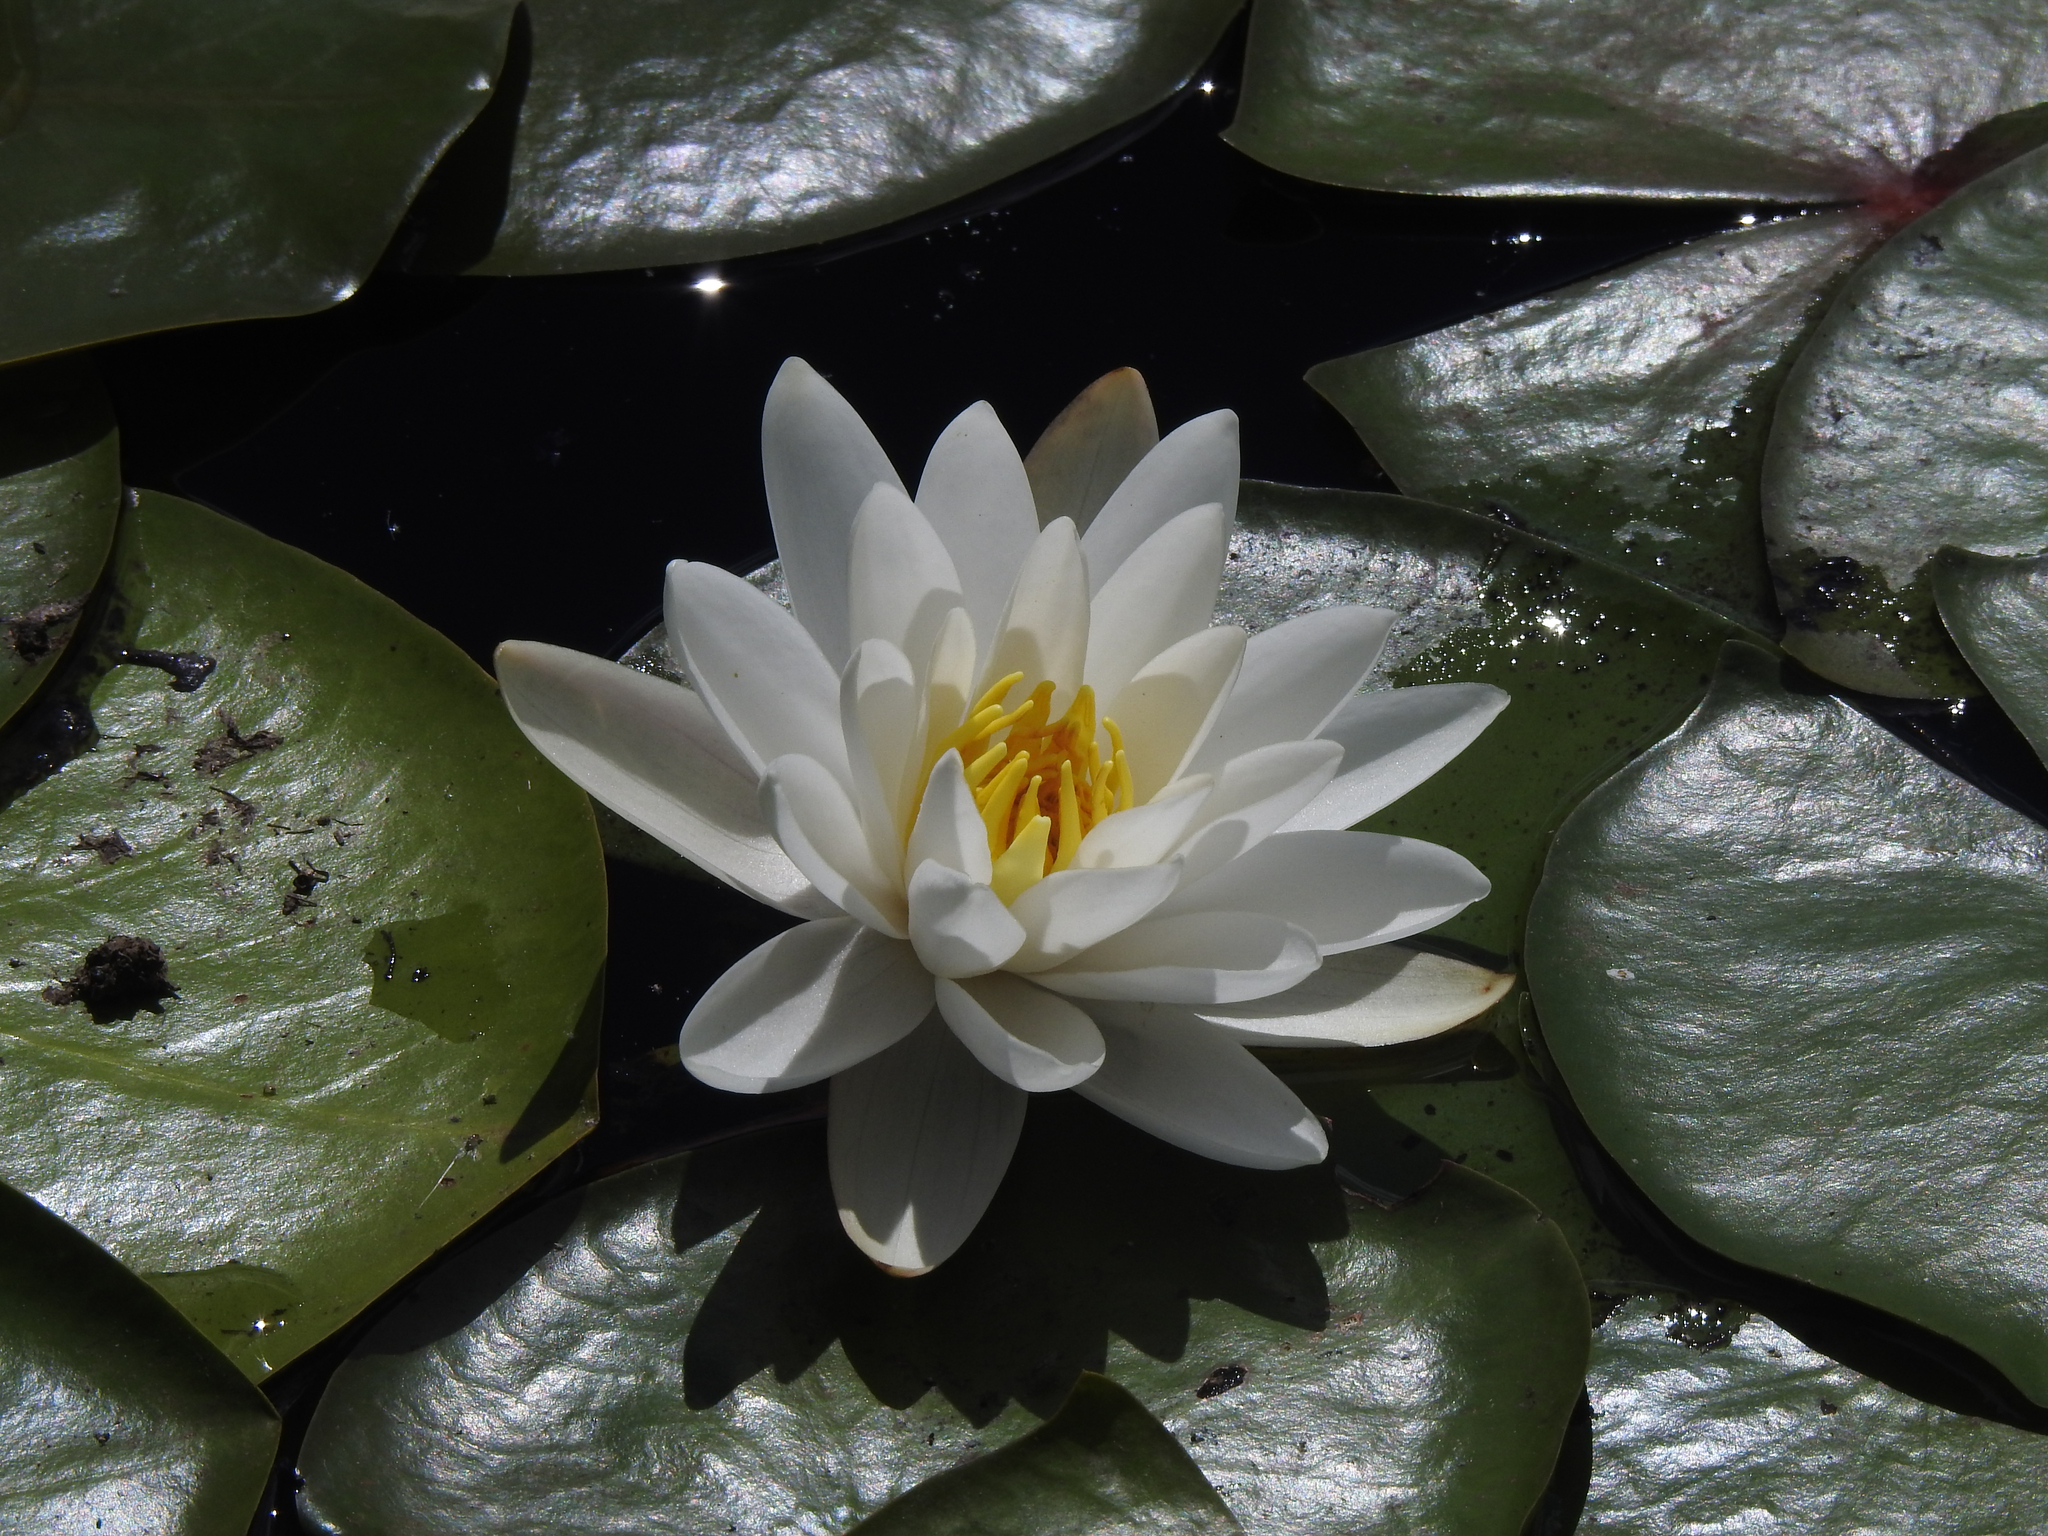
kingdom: Plantae
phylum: Tracheophyta
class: Magnoliopsida
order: Nymphaeales
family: Nymphaeaceae
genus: Nymphaea
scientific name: Nymphaea odorata
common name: Fragrant water-lily
